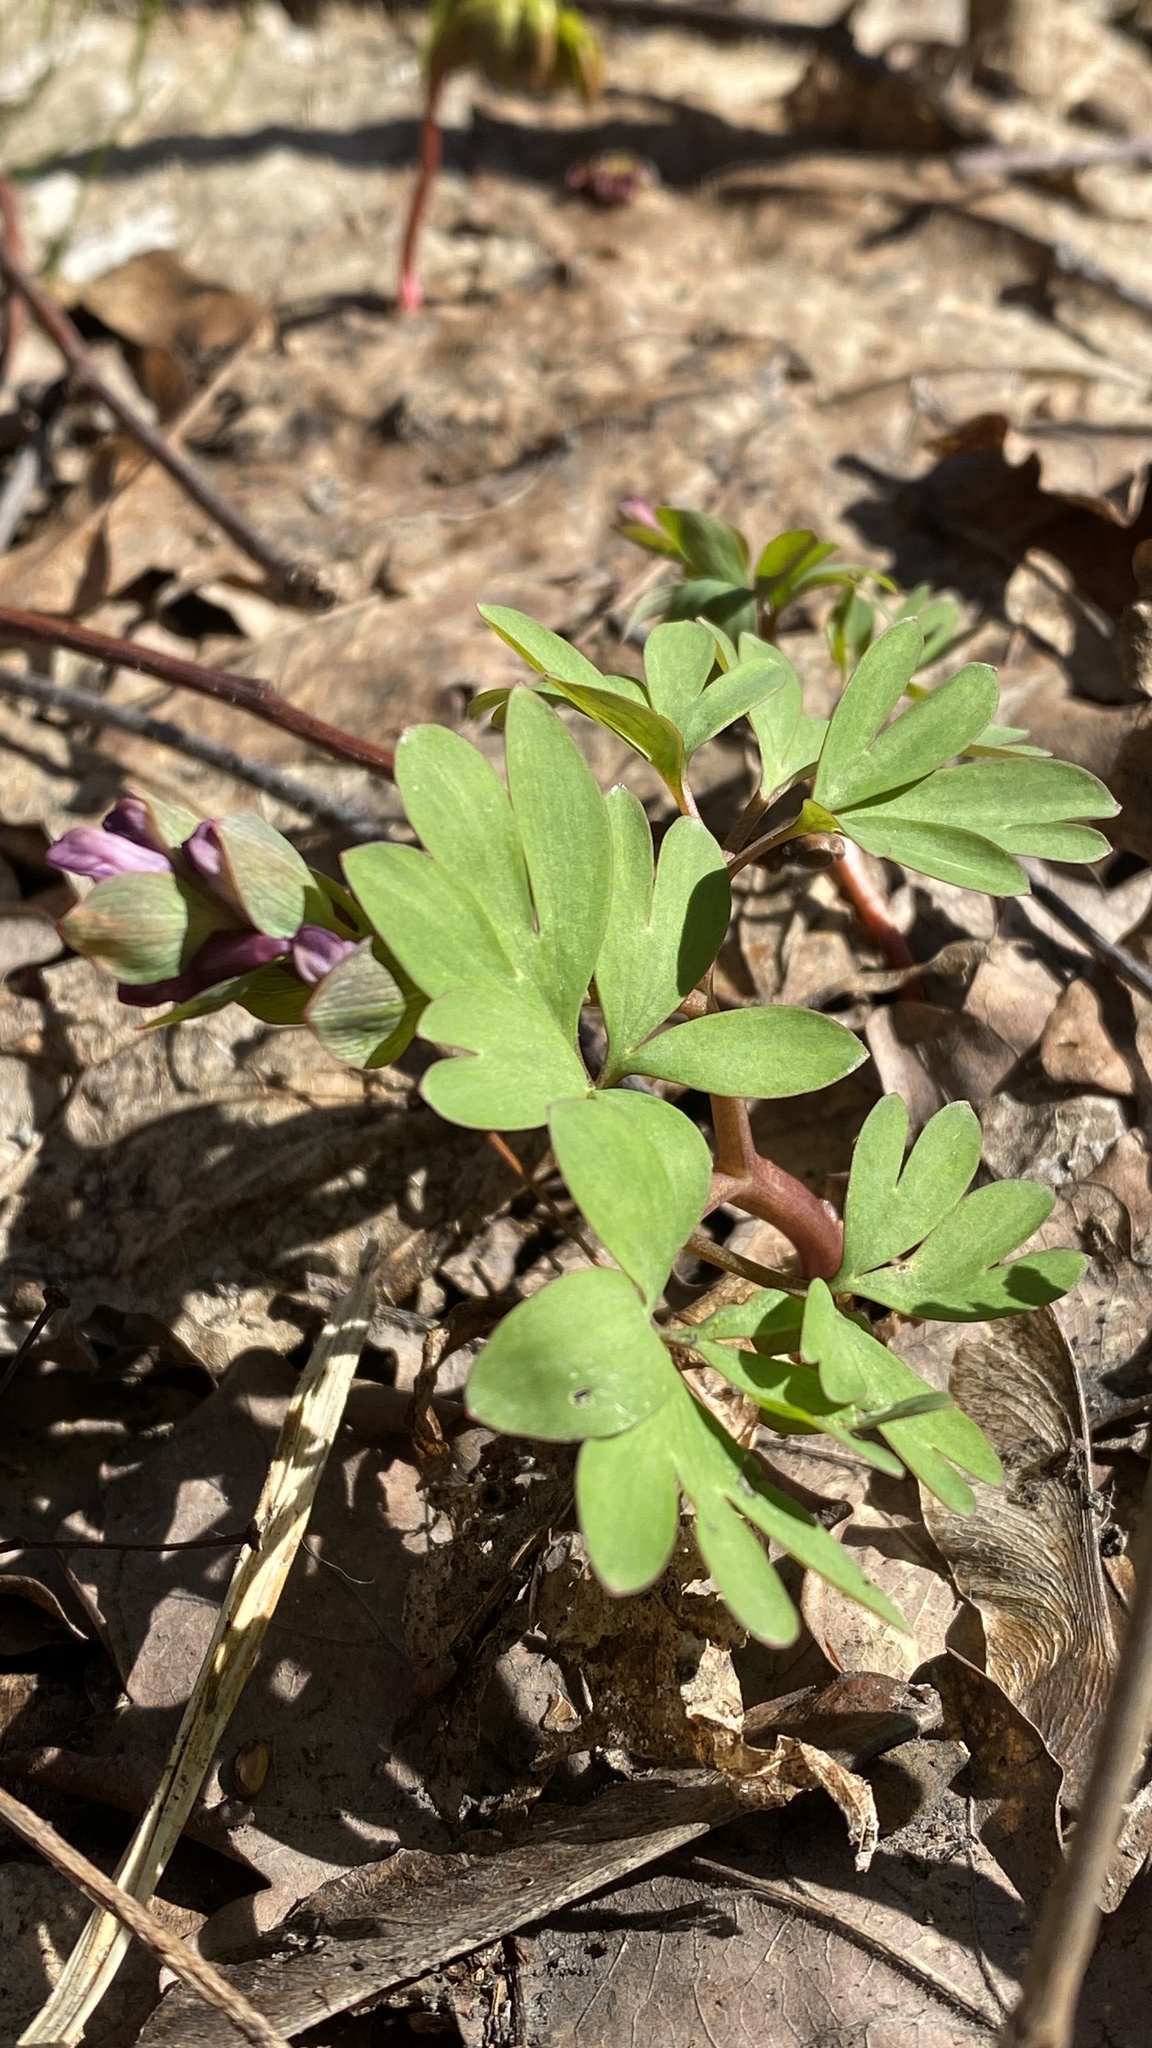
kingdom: Plantae
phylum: Tracheophyta
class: Magnoliopsida
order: Ranunculales
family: Papaveraceae
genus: Corydalis
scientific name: Corydalis intermedia
